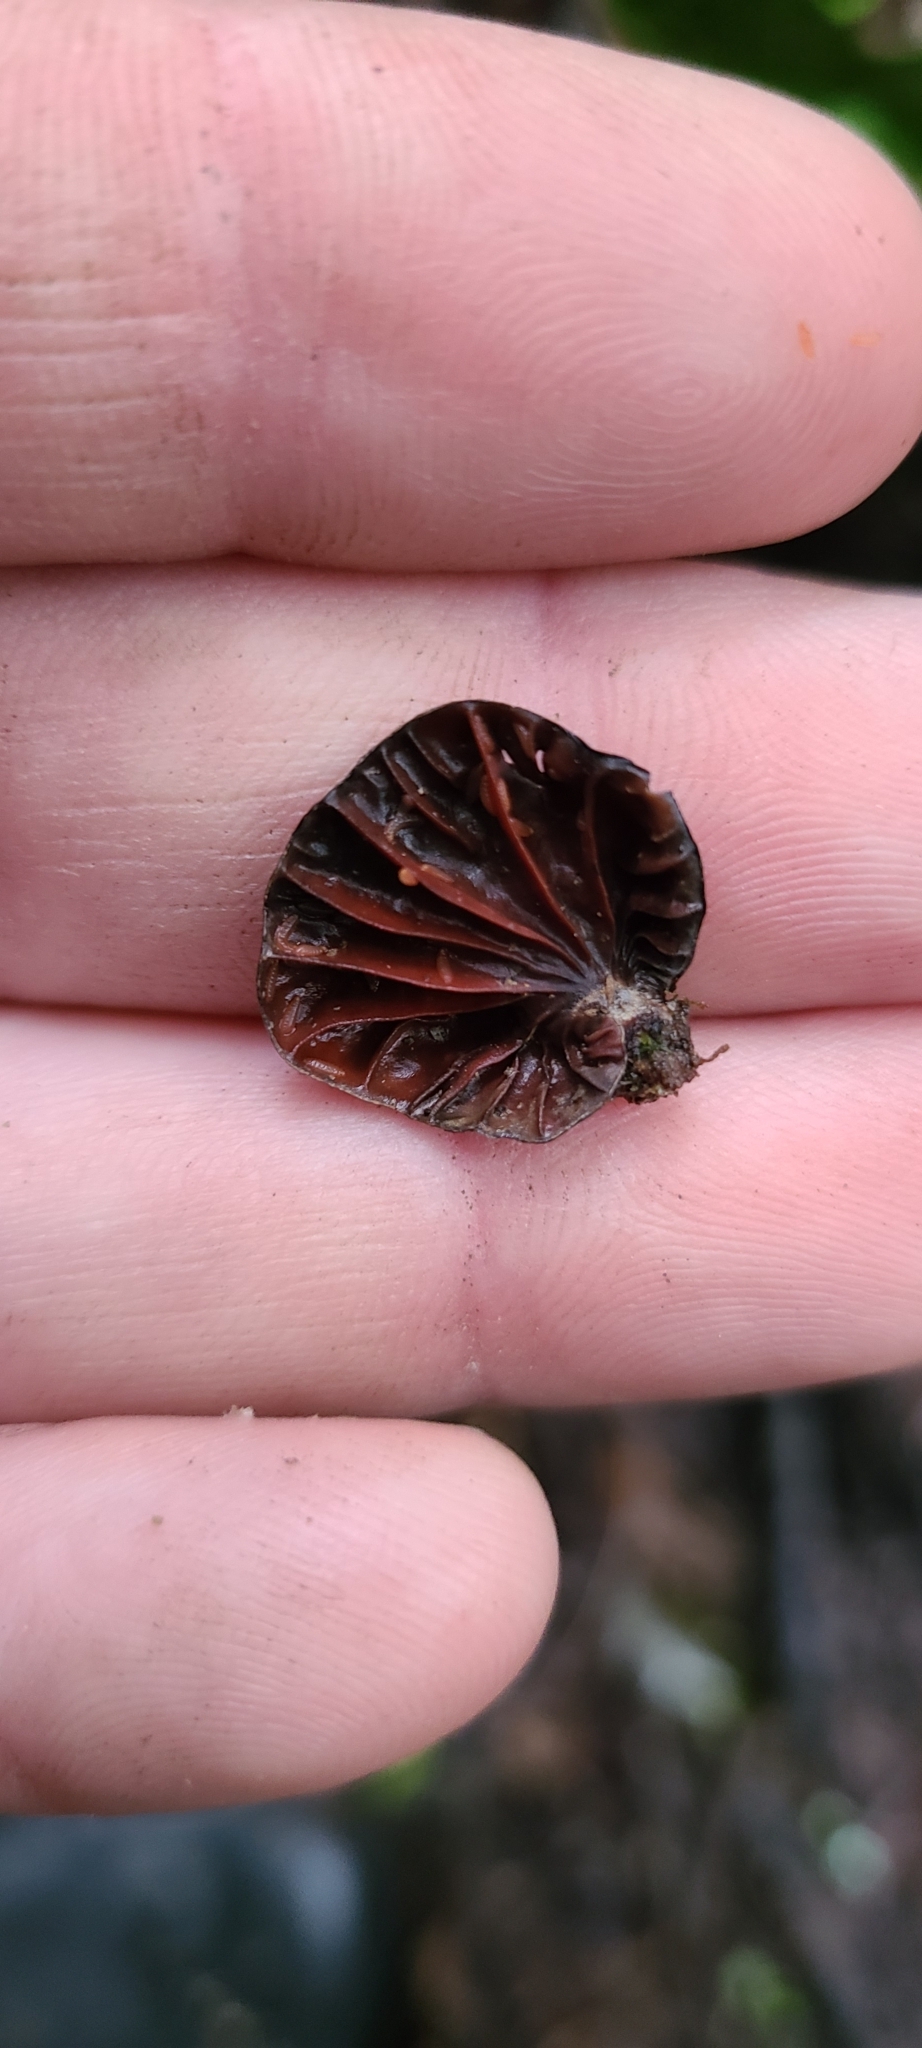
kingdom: Fungi
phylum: Basidiomycota
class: Agaricomycetes
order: Agaricales
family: Omphalotaceae
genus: Anthracophyllum
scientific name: Anthracophyllum archeri
